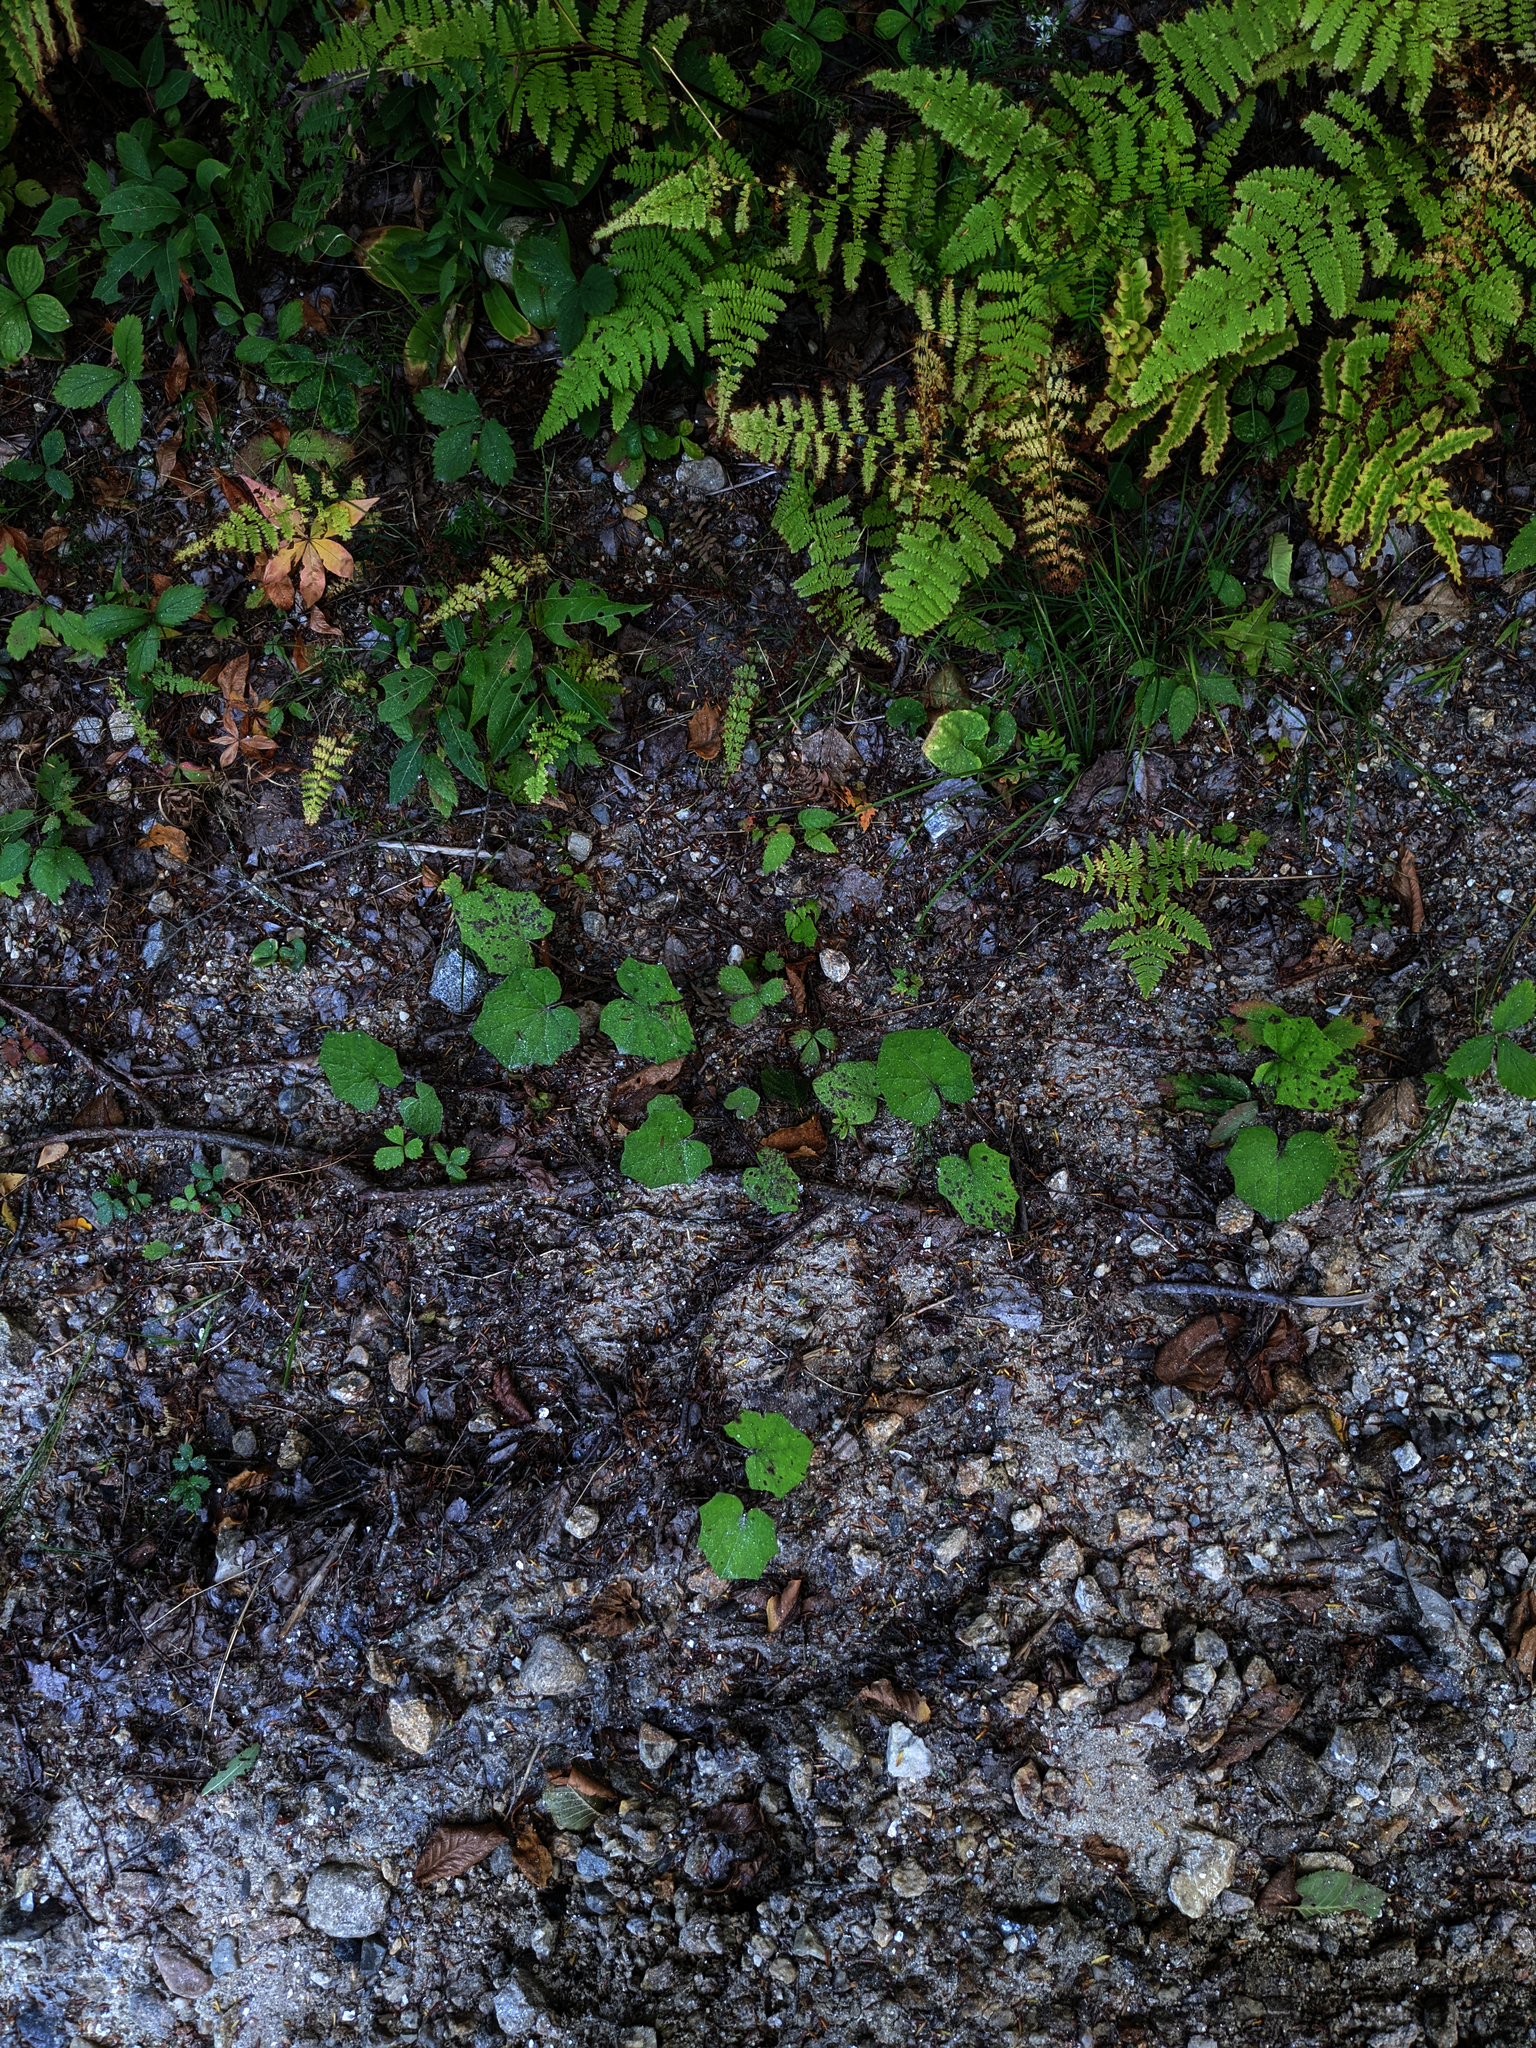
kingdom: Plantae
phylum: Tracheophyta
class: Magnoliopsida
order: Asterales
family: Asteraceae
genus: Tussilago
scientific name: Tussilago farfara
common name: Coltsfoot
